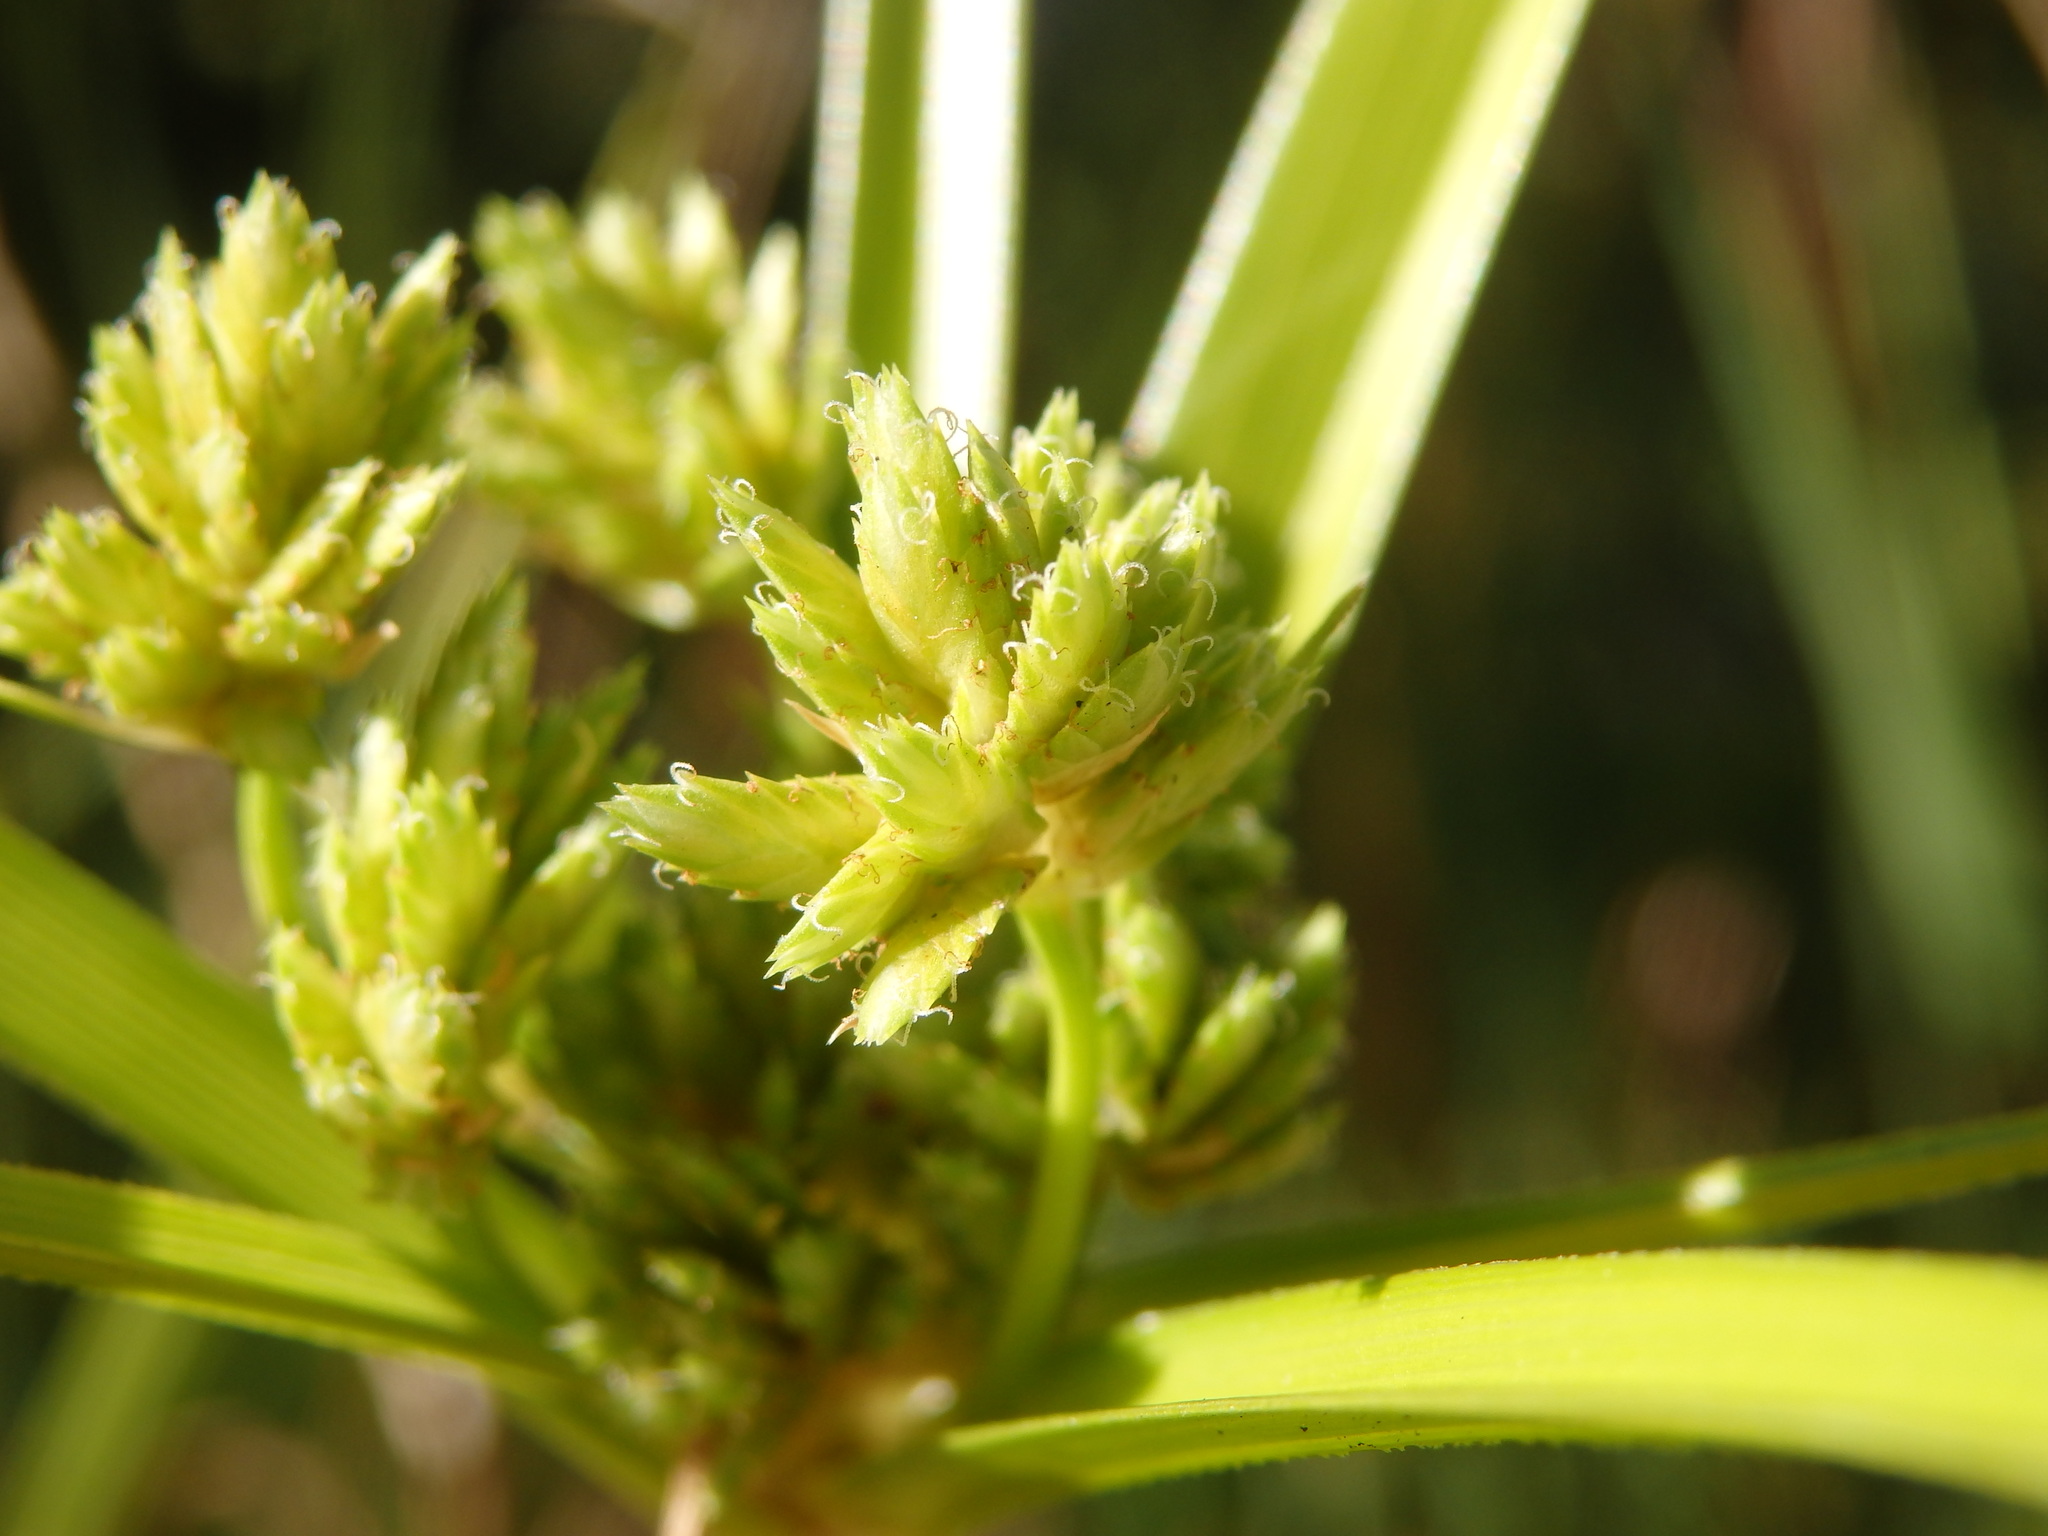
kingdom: Plantae
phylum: Tracheophyta
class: Liliopsida
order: Poales
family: Cyperaceae
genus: Cyperus
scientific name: Cyperus eragrostis
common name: Tall flatsedge
